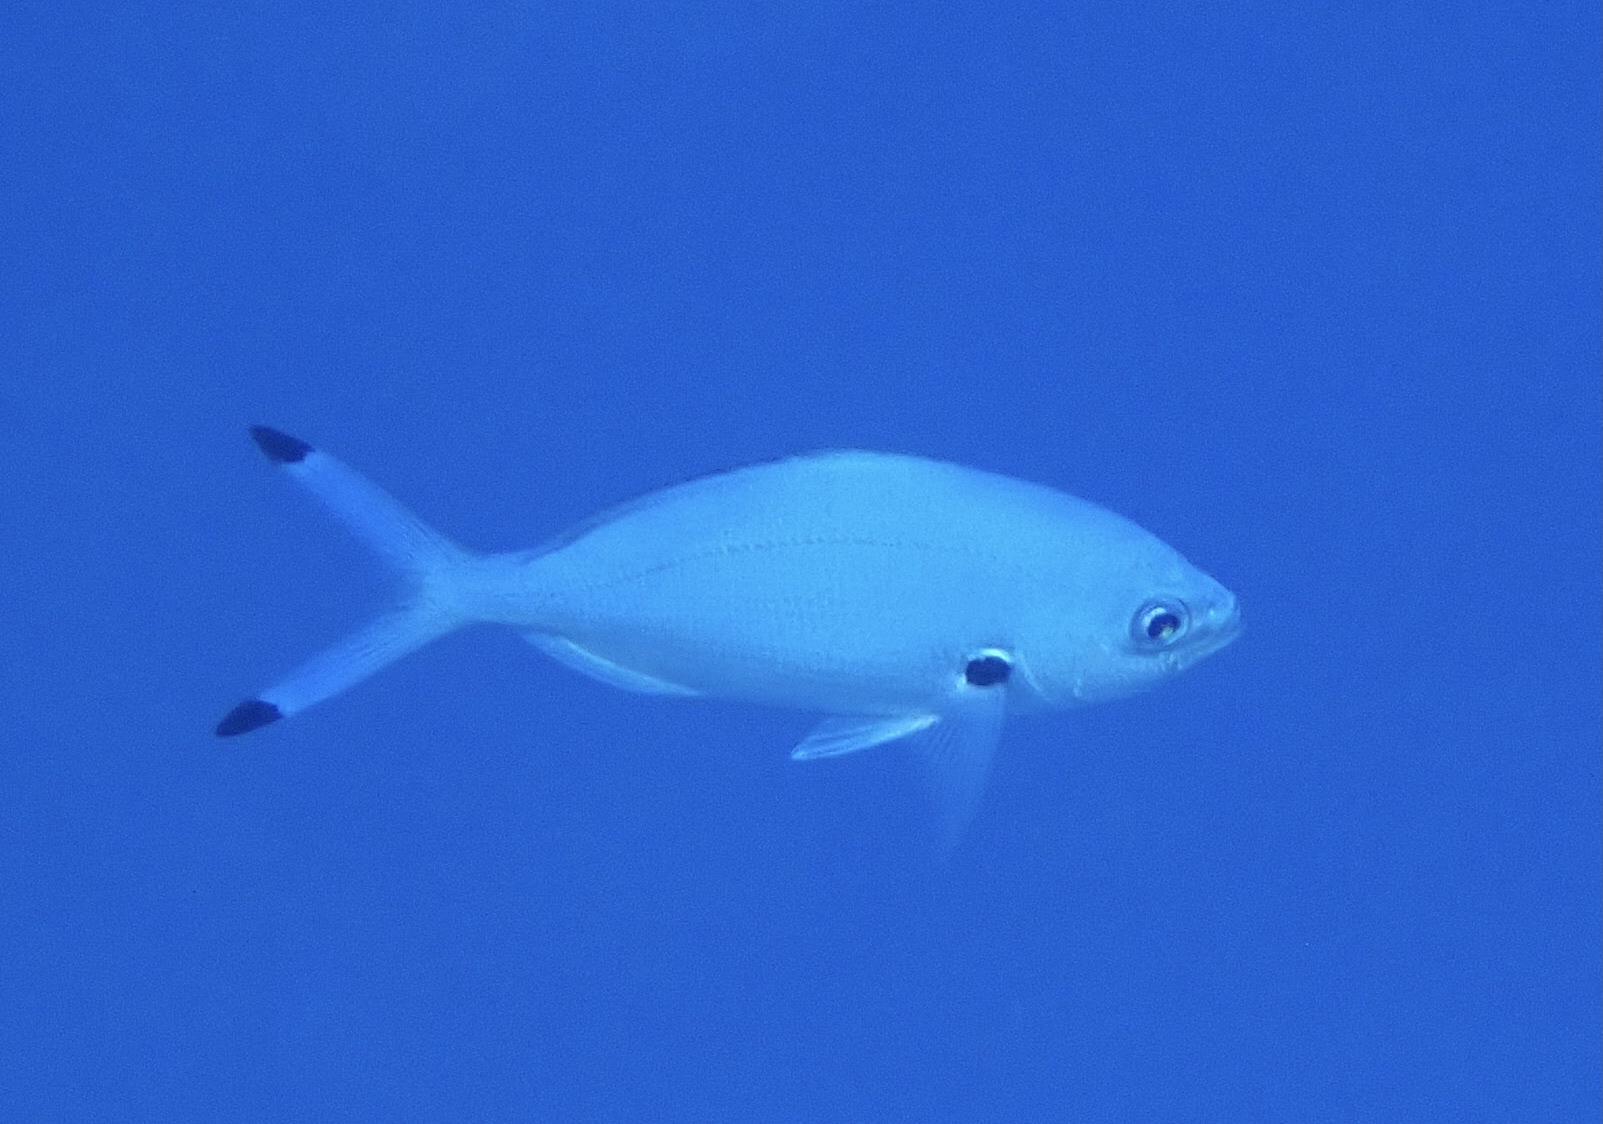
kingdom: Animalia
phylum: Chordata
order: Perciformes
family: Caesionidae
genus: Caesio
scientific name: Caesio lunaris
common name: Blue fusilier
